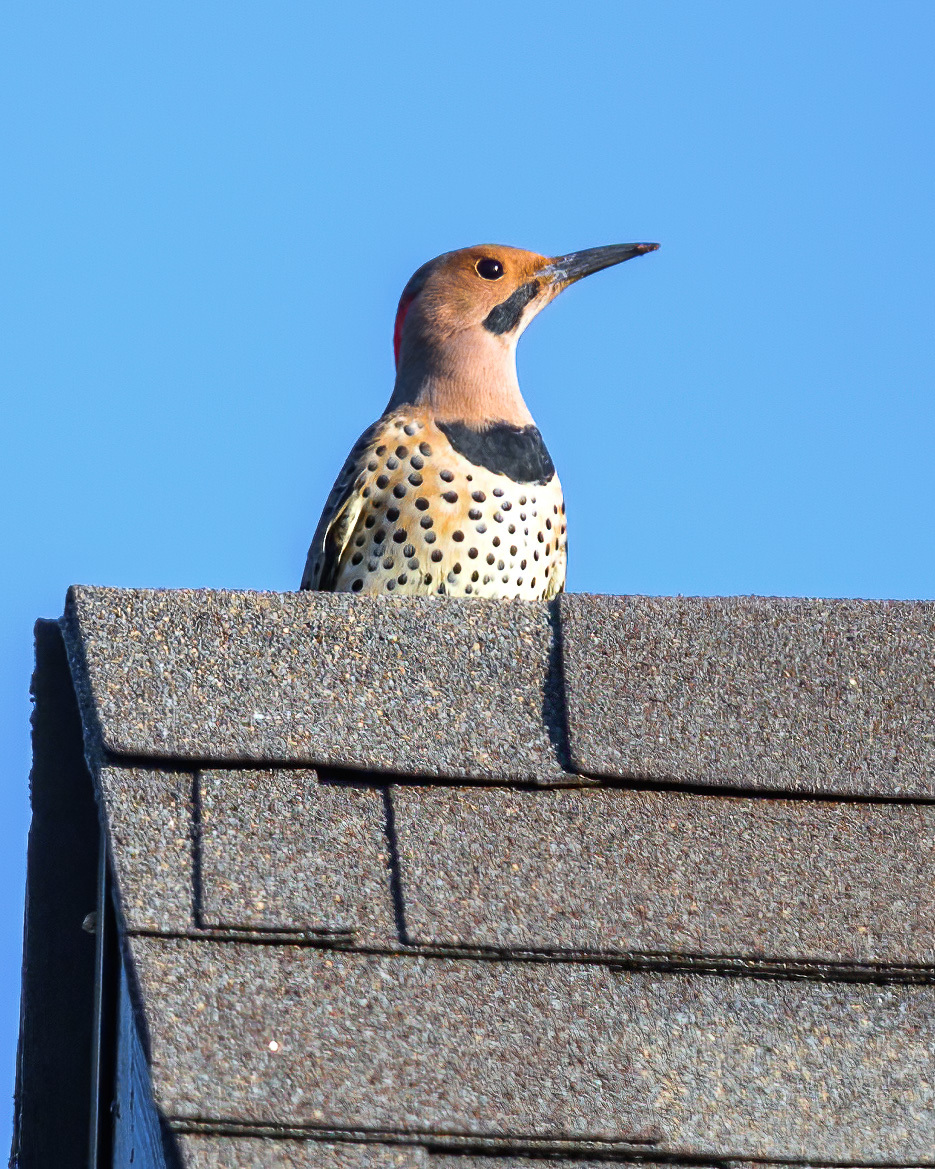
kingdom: Animalia
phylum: Chordata
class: Aves
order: Piciformes
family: Picidae
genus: Colaptes
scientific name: Colaptes auratus
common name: Northern flicker
